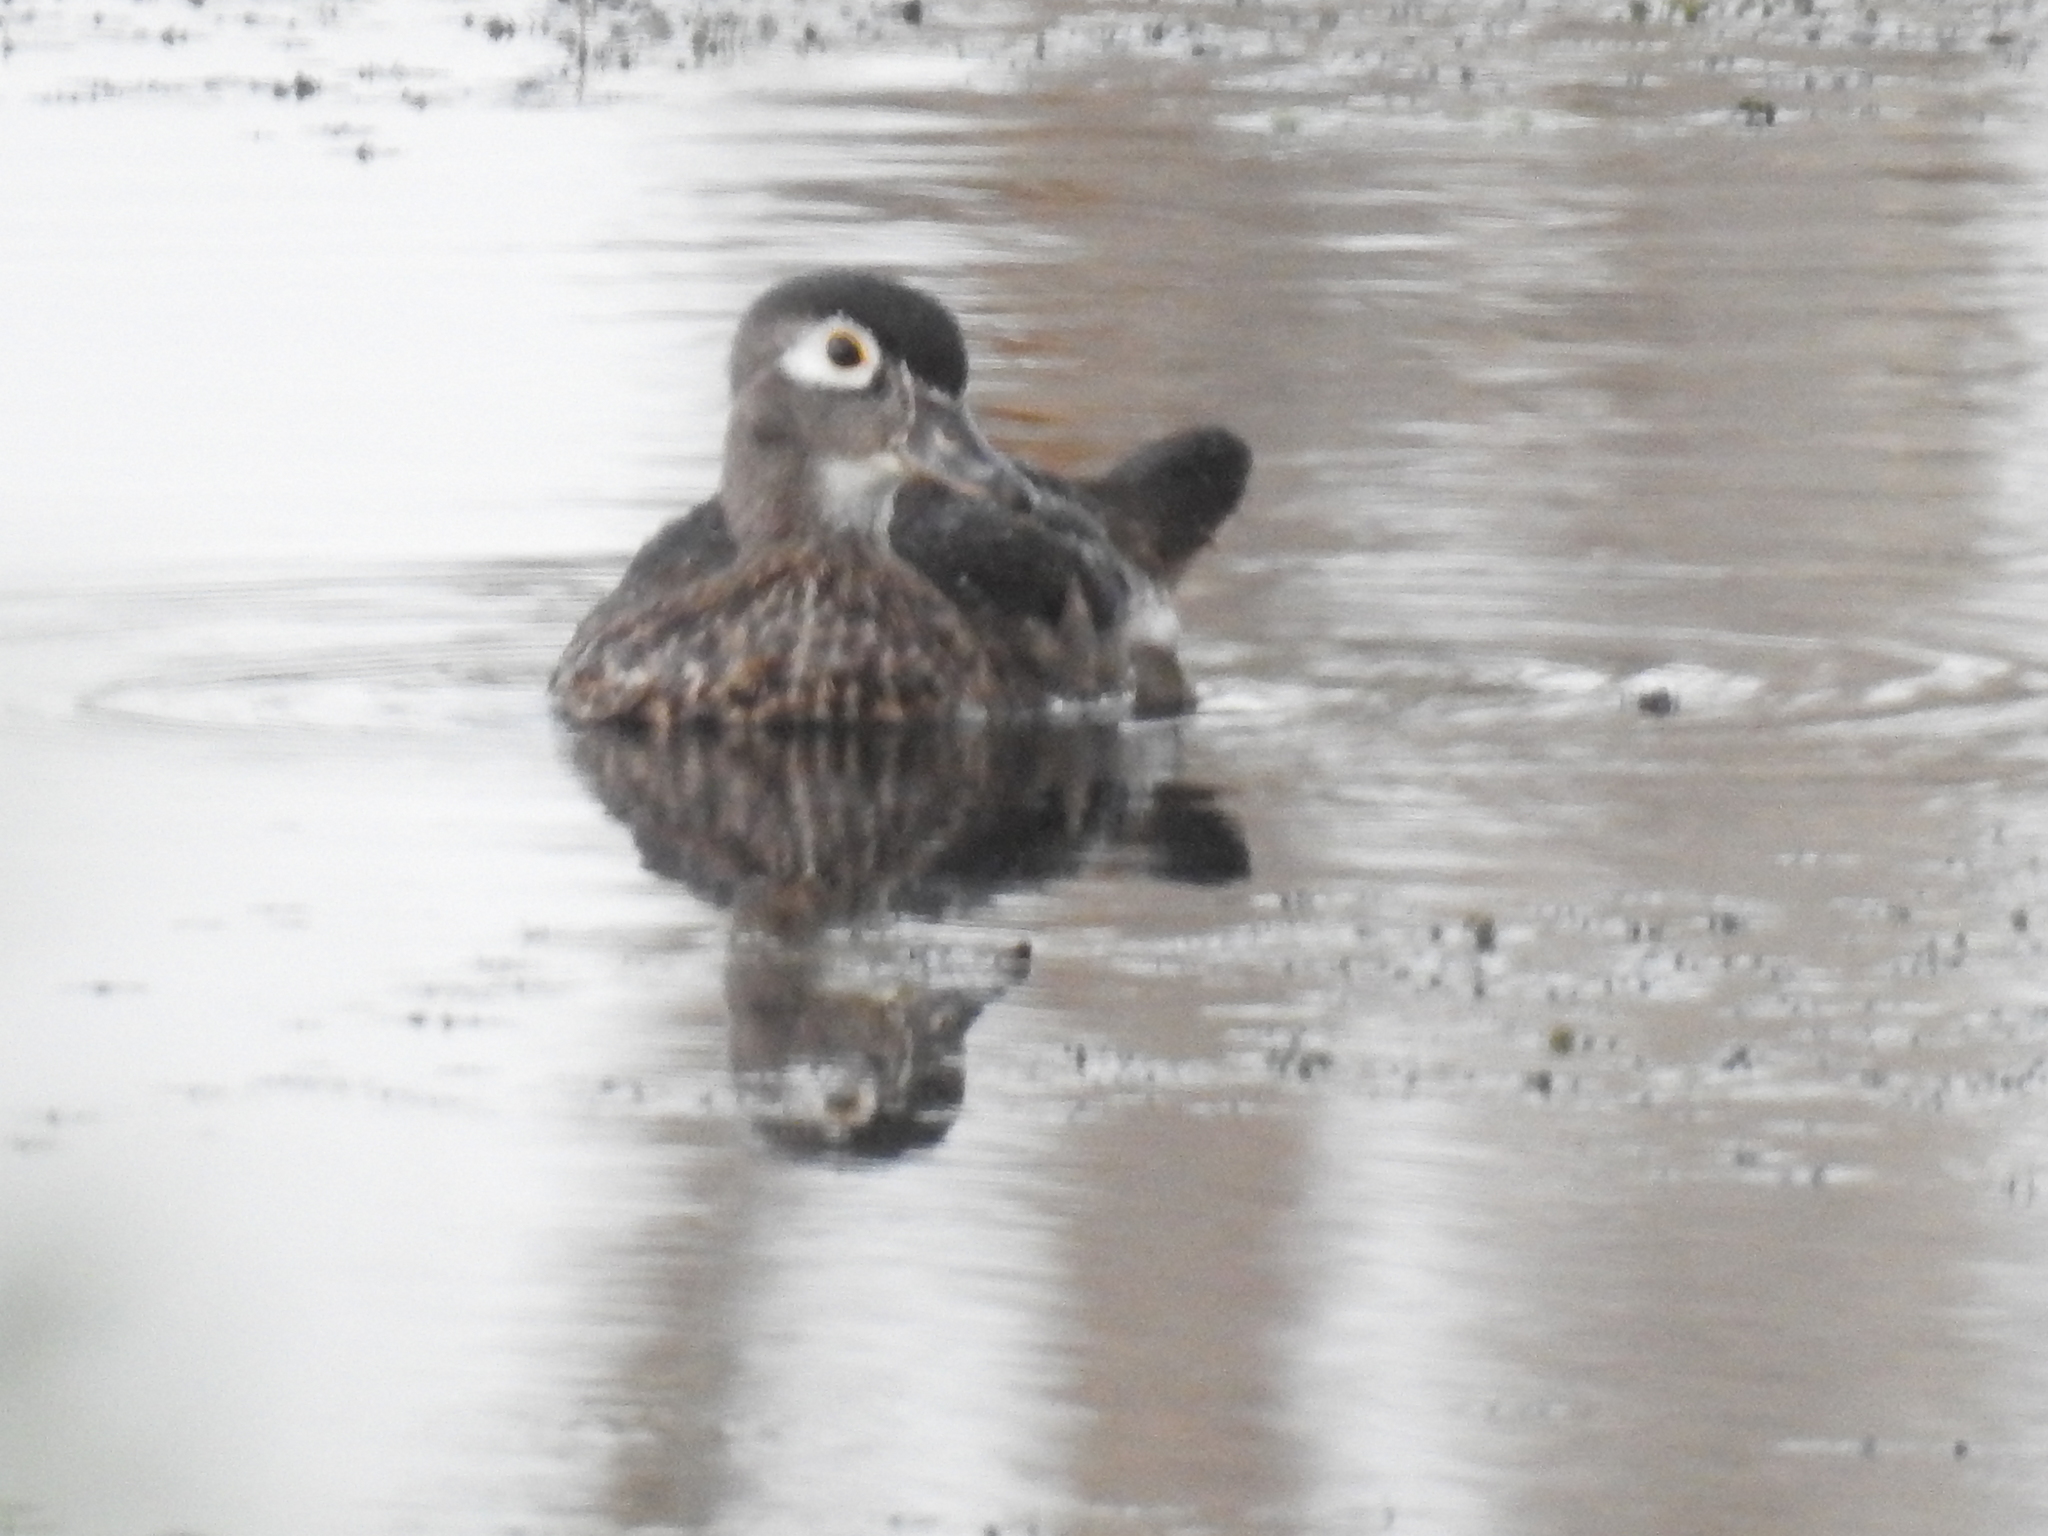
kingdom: Animalia
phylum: Chordata
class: Aves
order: Anseriformes
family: Anatidae
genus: Aix
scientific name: Aix sponsa
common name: Wood duck
